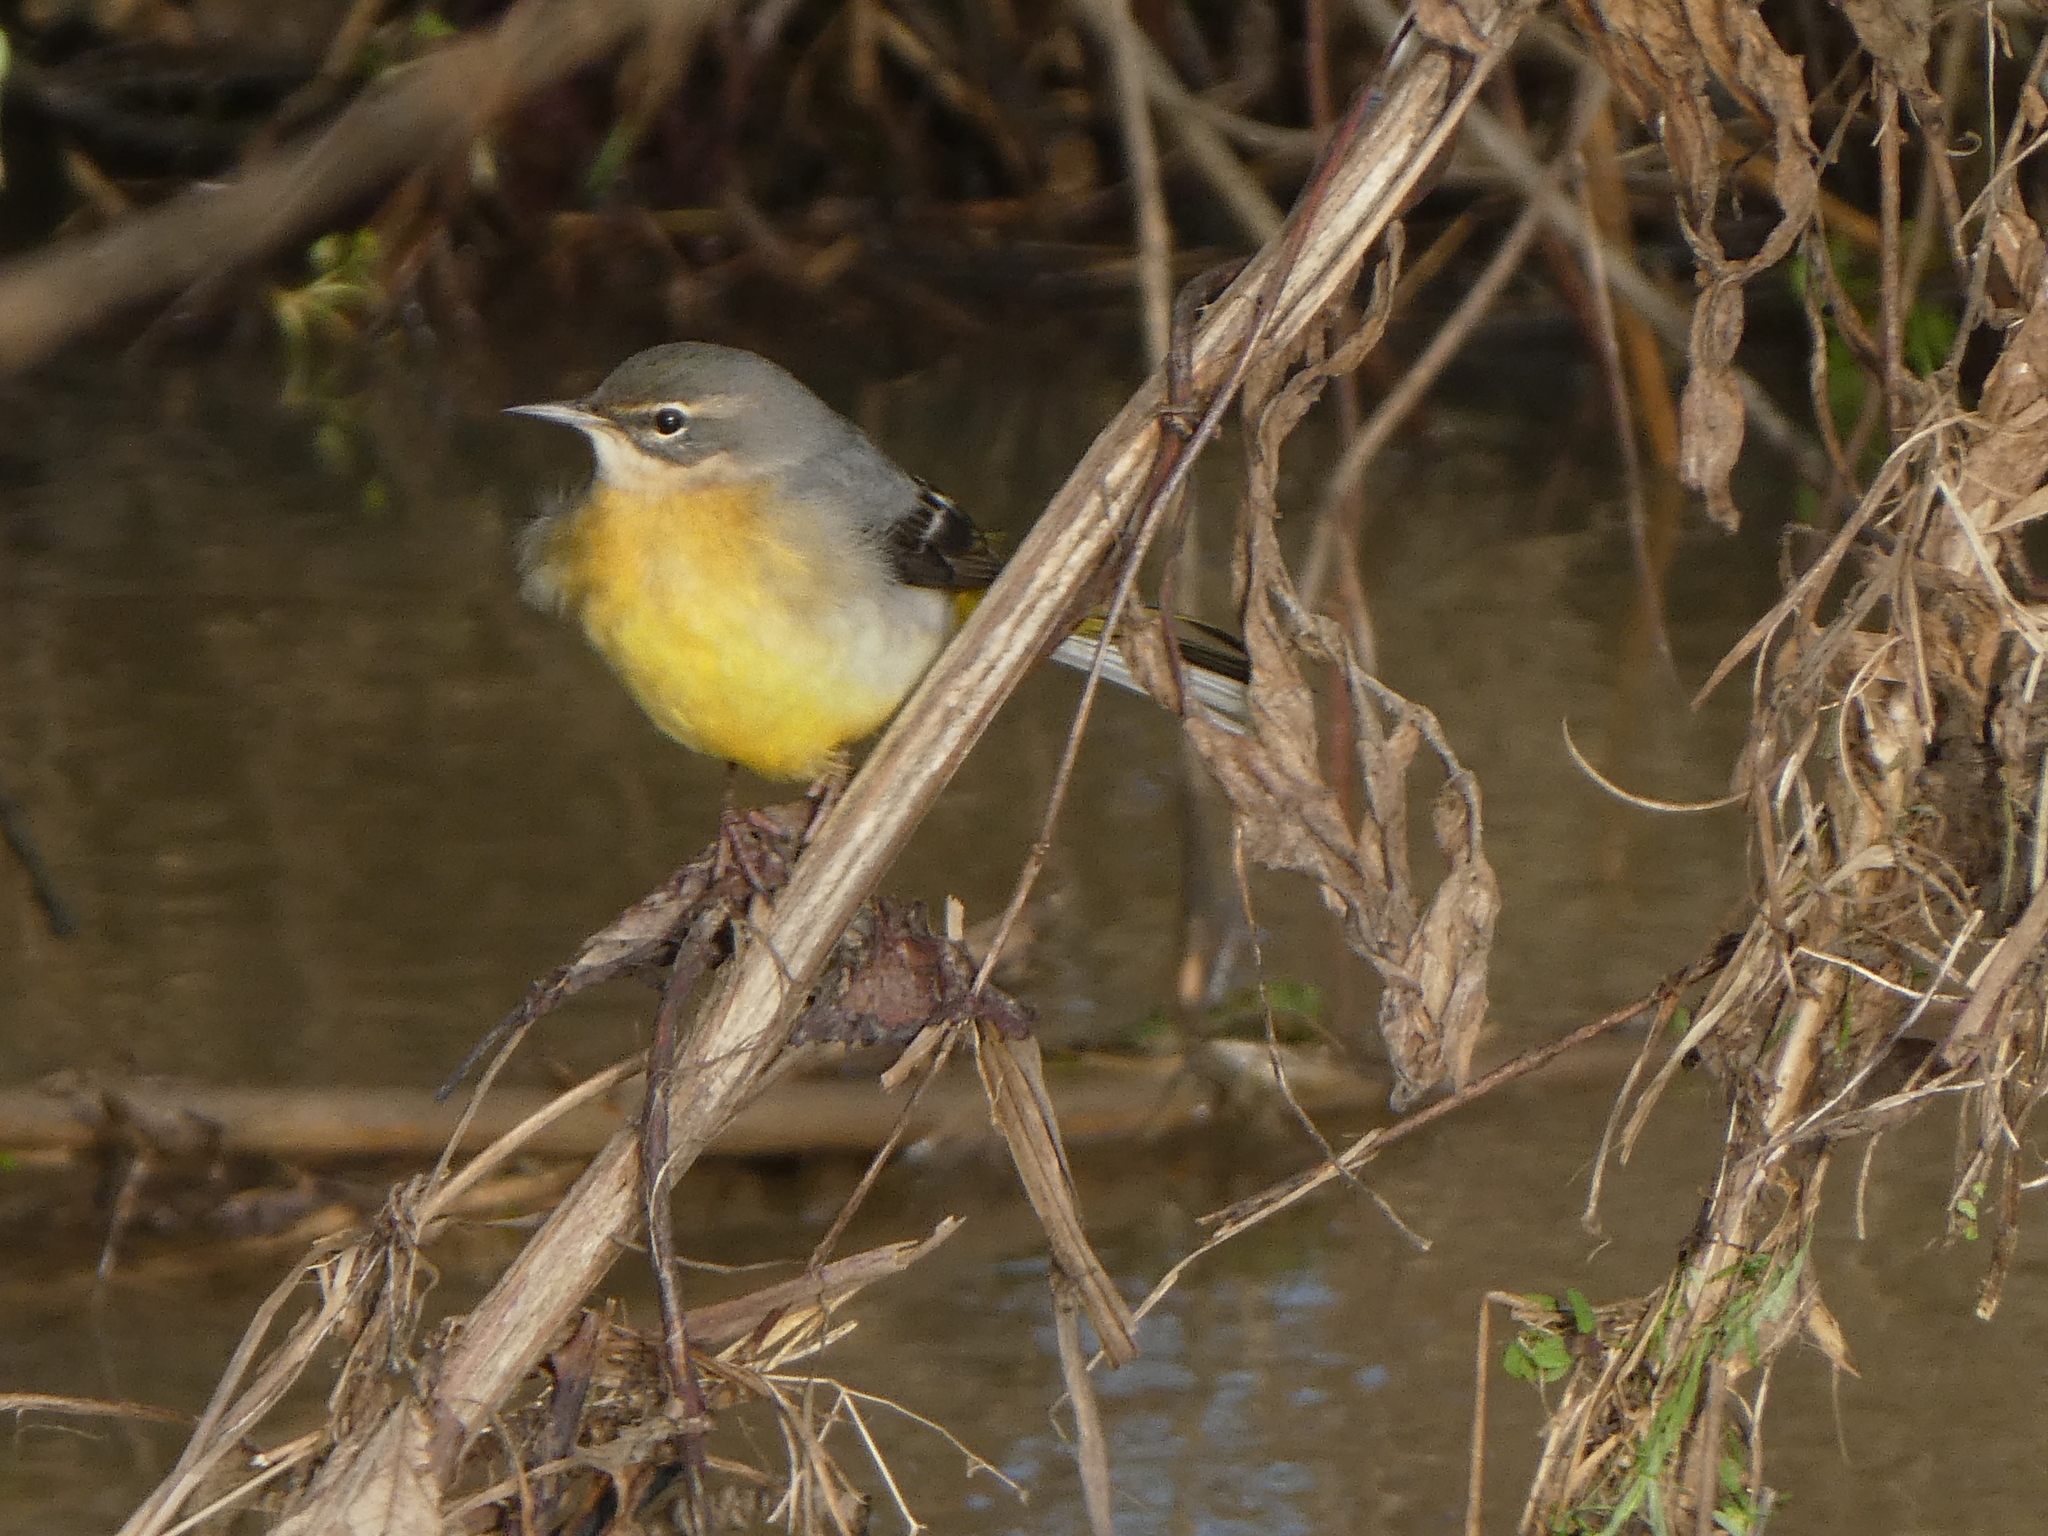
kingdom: Animalia
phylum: Chordata
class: Aves
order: Passeriformes
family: Motacillidae
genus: Motacilla
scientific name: Motacilla cinerea
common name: Grey wagtail
